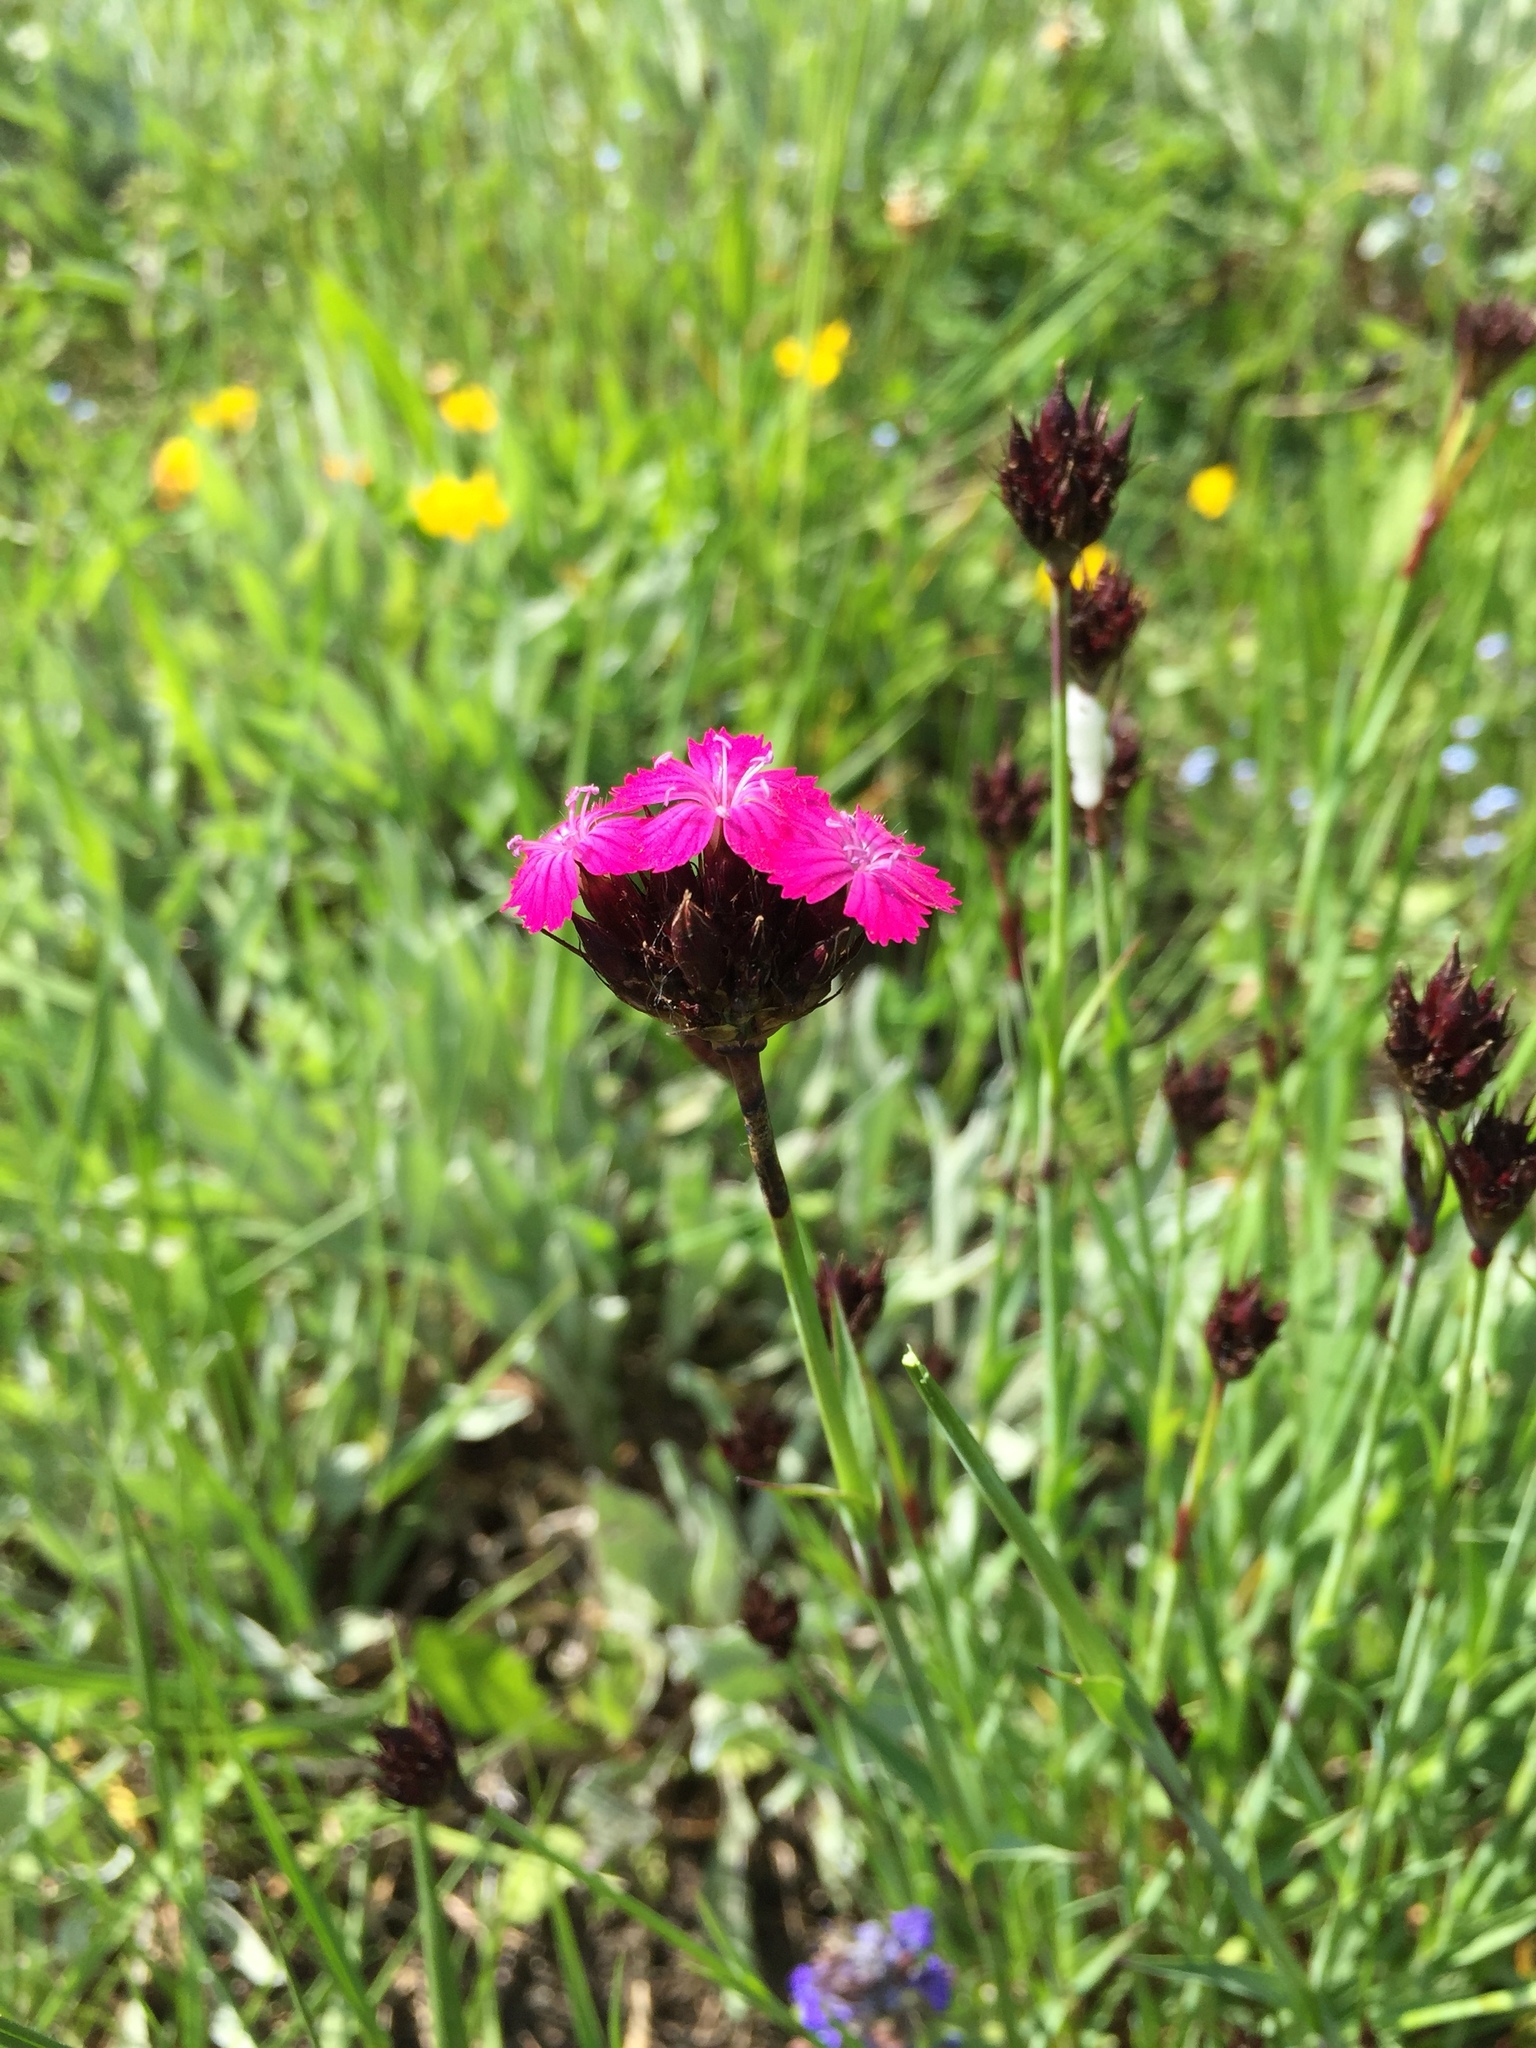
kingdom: Plantae
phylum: Tracheophyta
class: Magnoliopsida
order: Caryophyllales
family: Caryophyllaceae
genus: Dianthus
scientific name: Dianthus carthusianorum
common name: Carthusian pink
